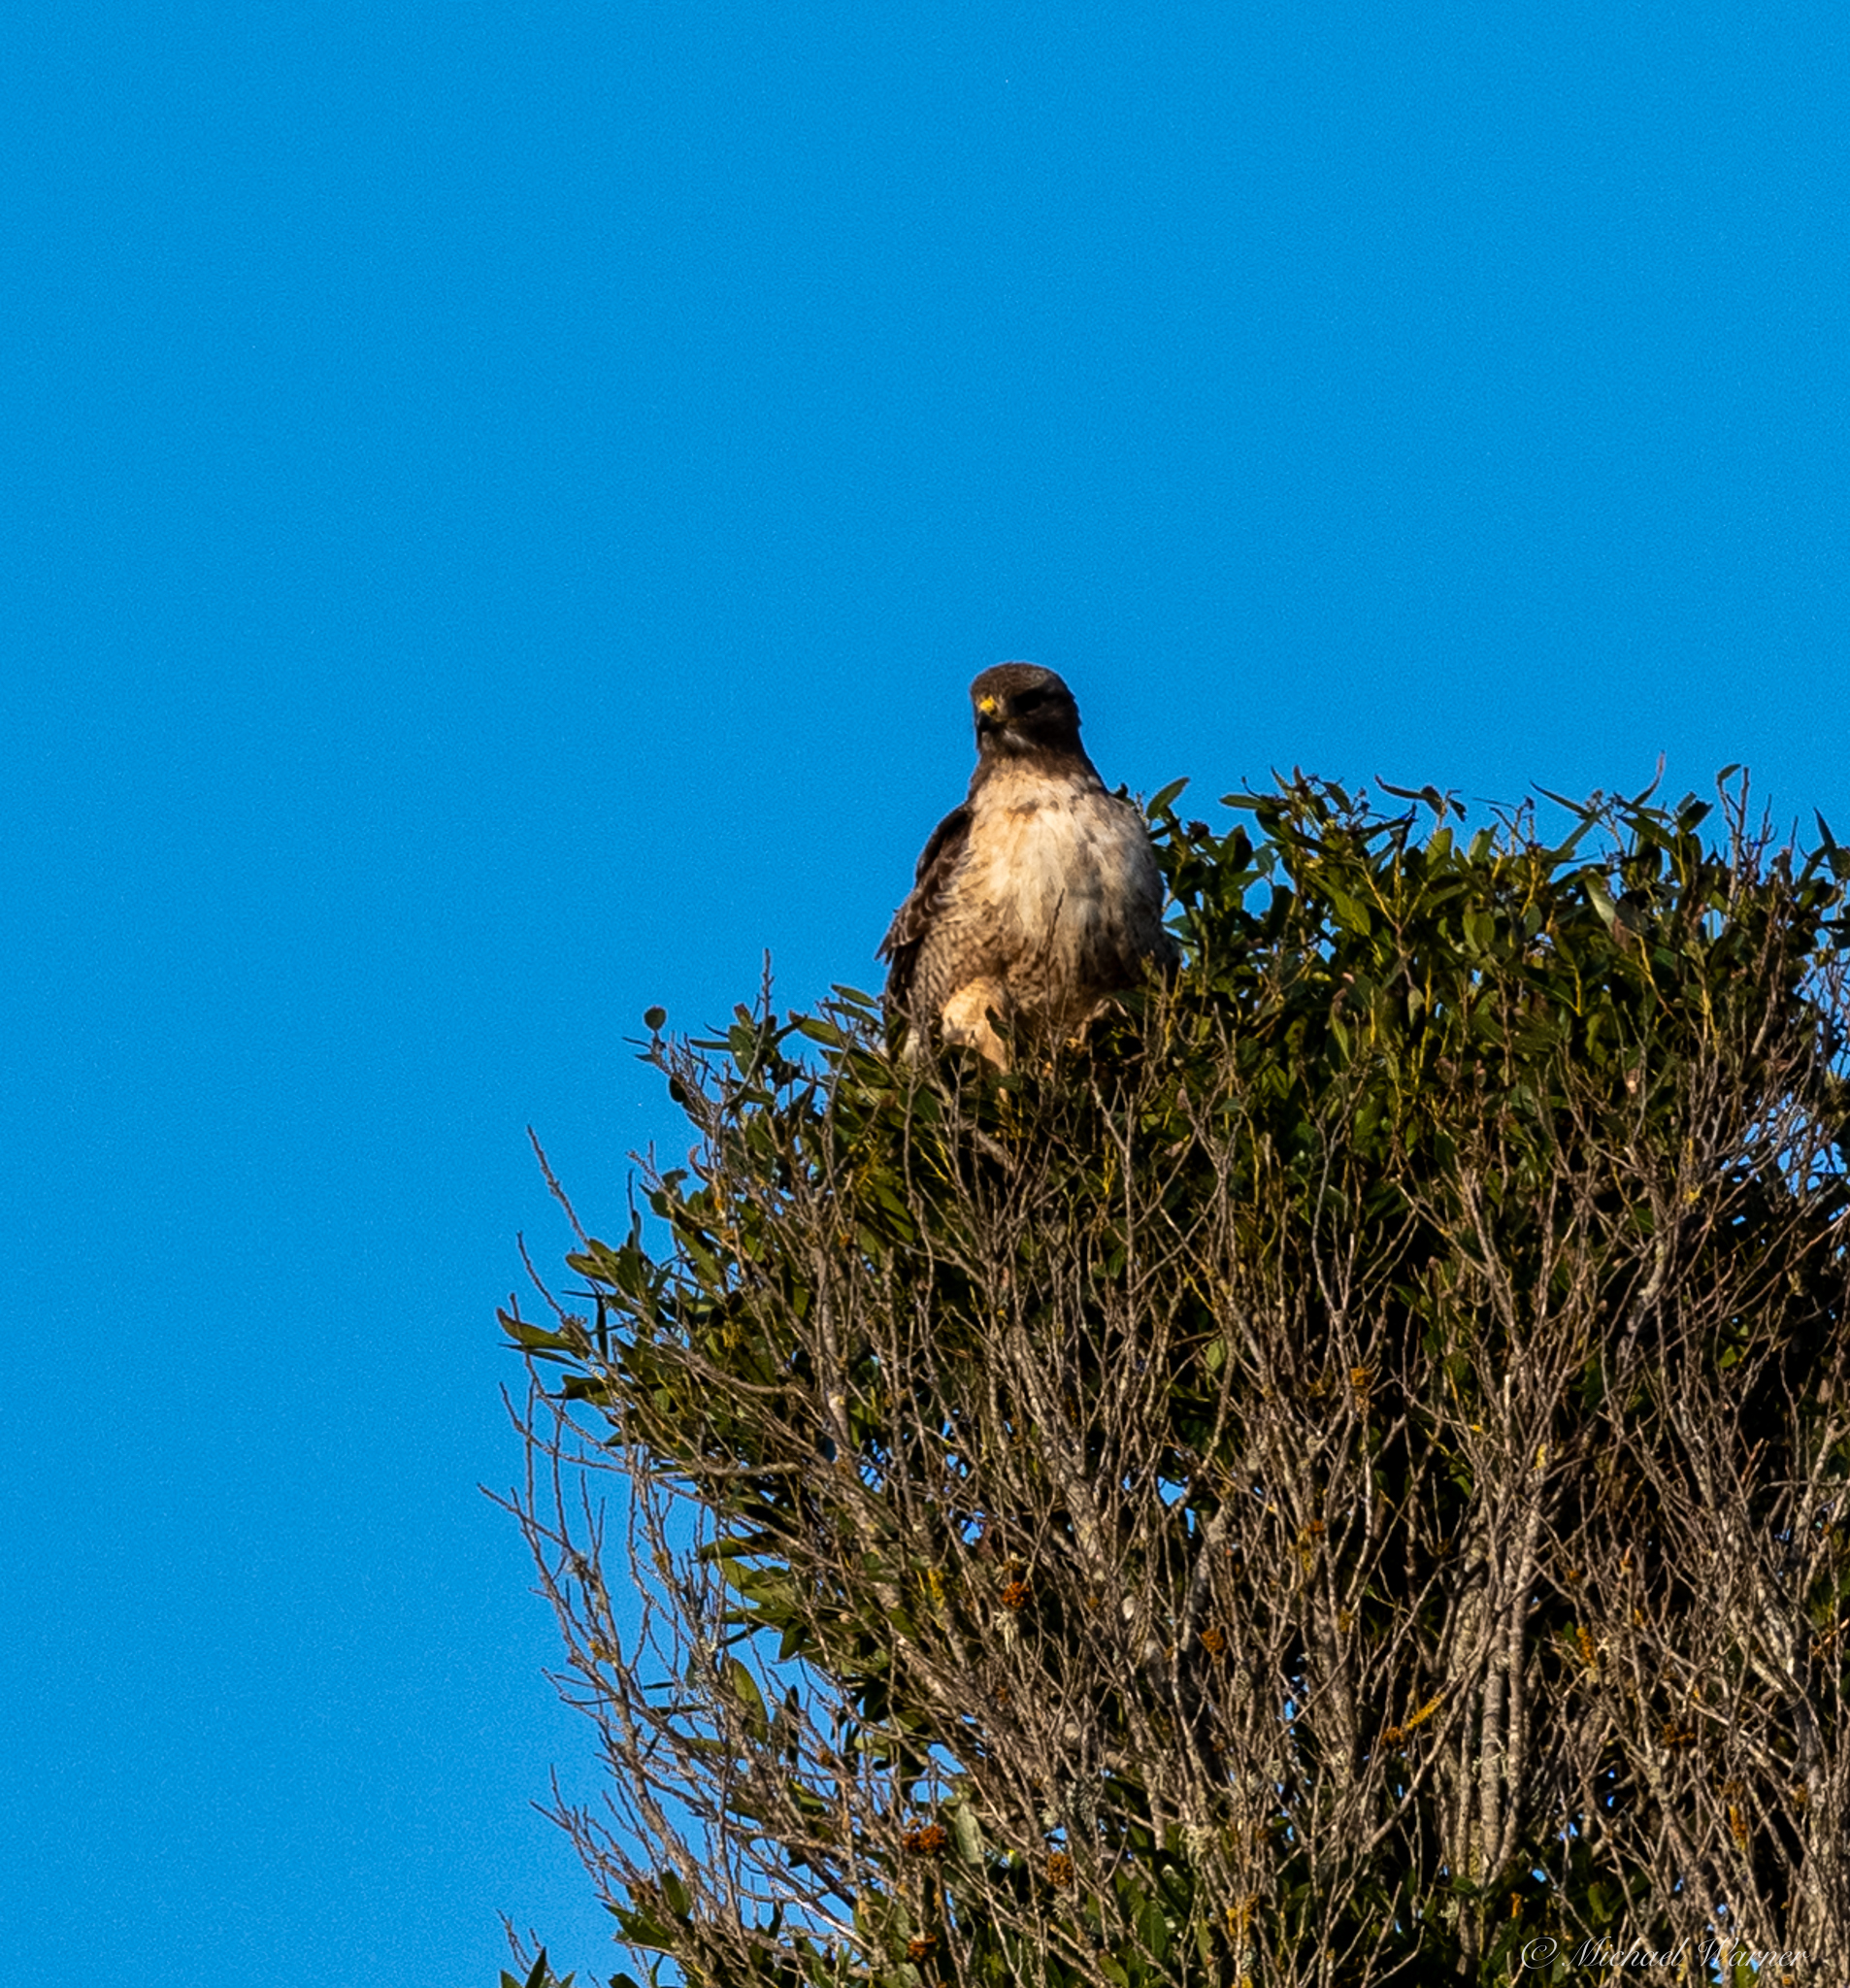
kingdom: Animalia
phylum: Chordata
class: Aves
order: Accipitriformes
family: Accipitridae
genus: Buteo
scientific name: Buteo jamaicensis
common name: Red-tailed hawk
